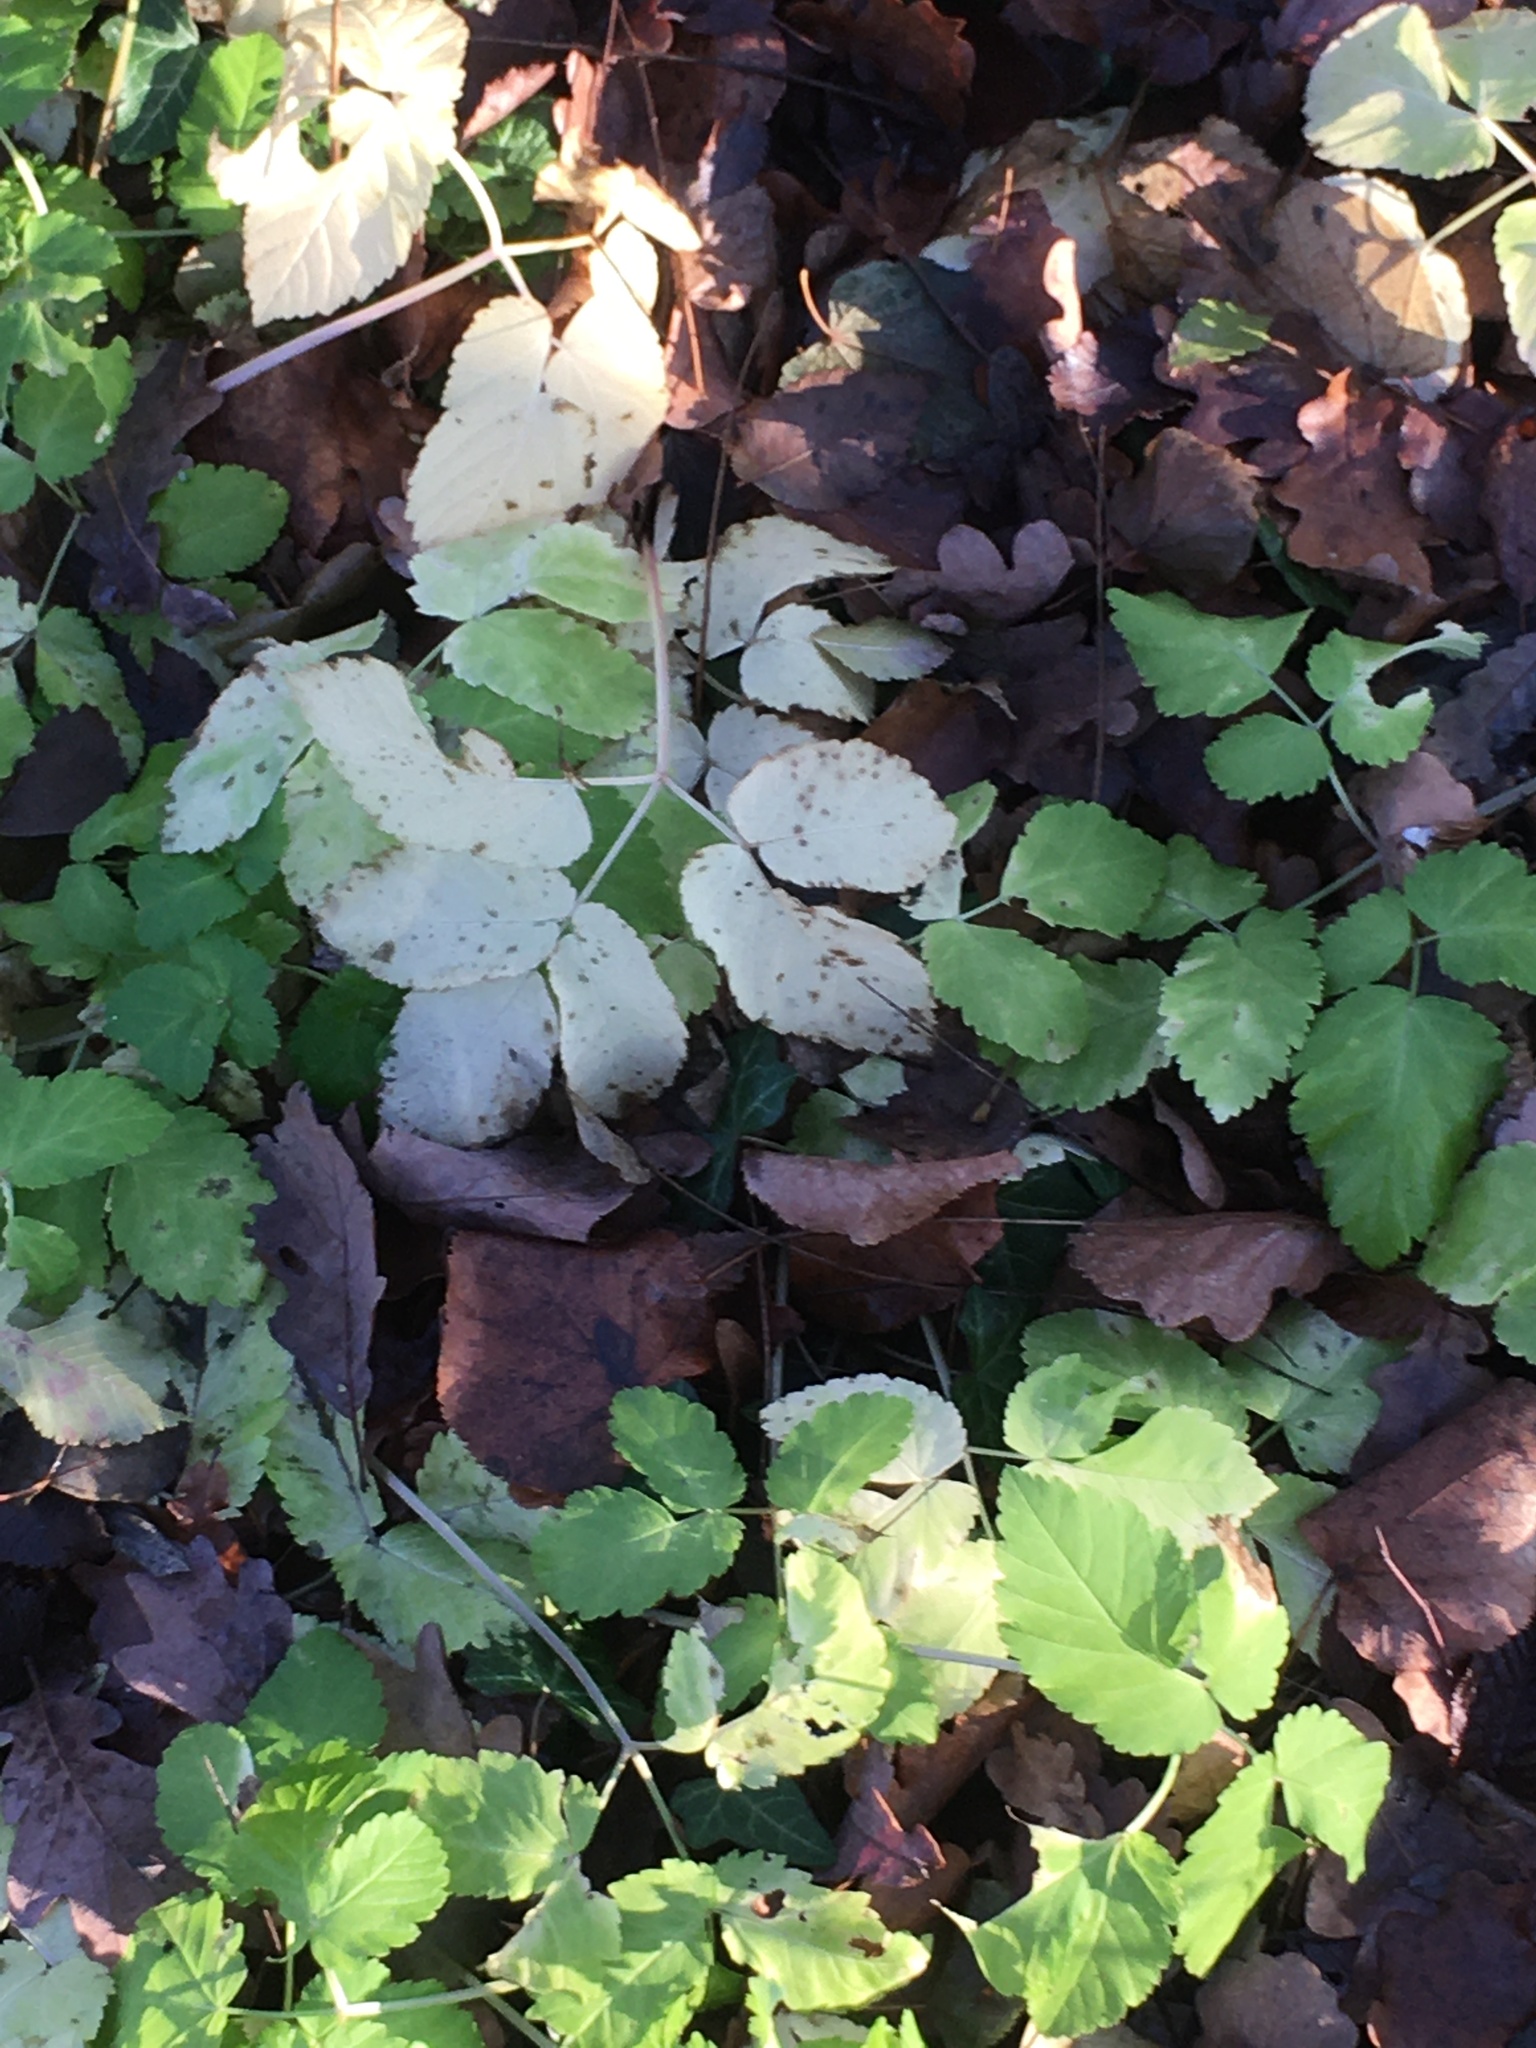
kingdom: Plantae
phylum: Tracheophyta
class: Magnoliopsida
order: Apiales
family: Apiaceae
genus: Aegopodium
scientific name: Aegopodium podagraria
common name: Ground-elder
